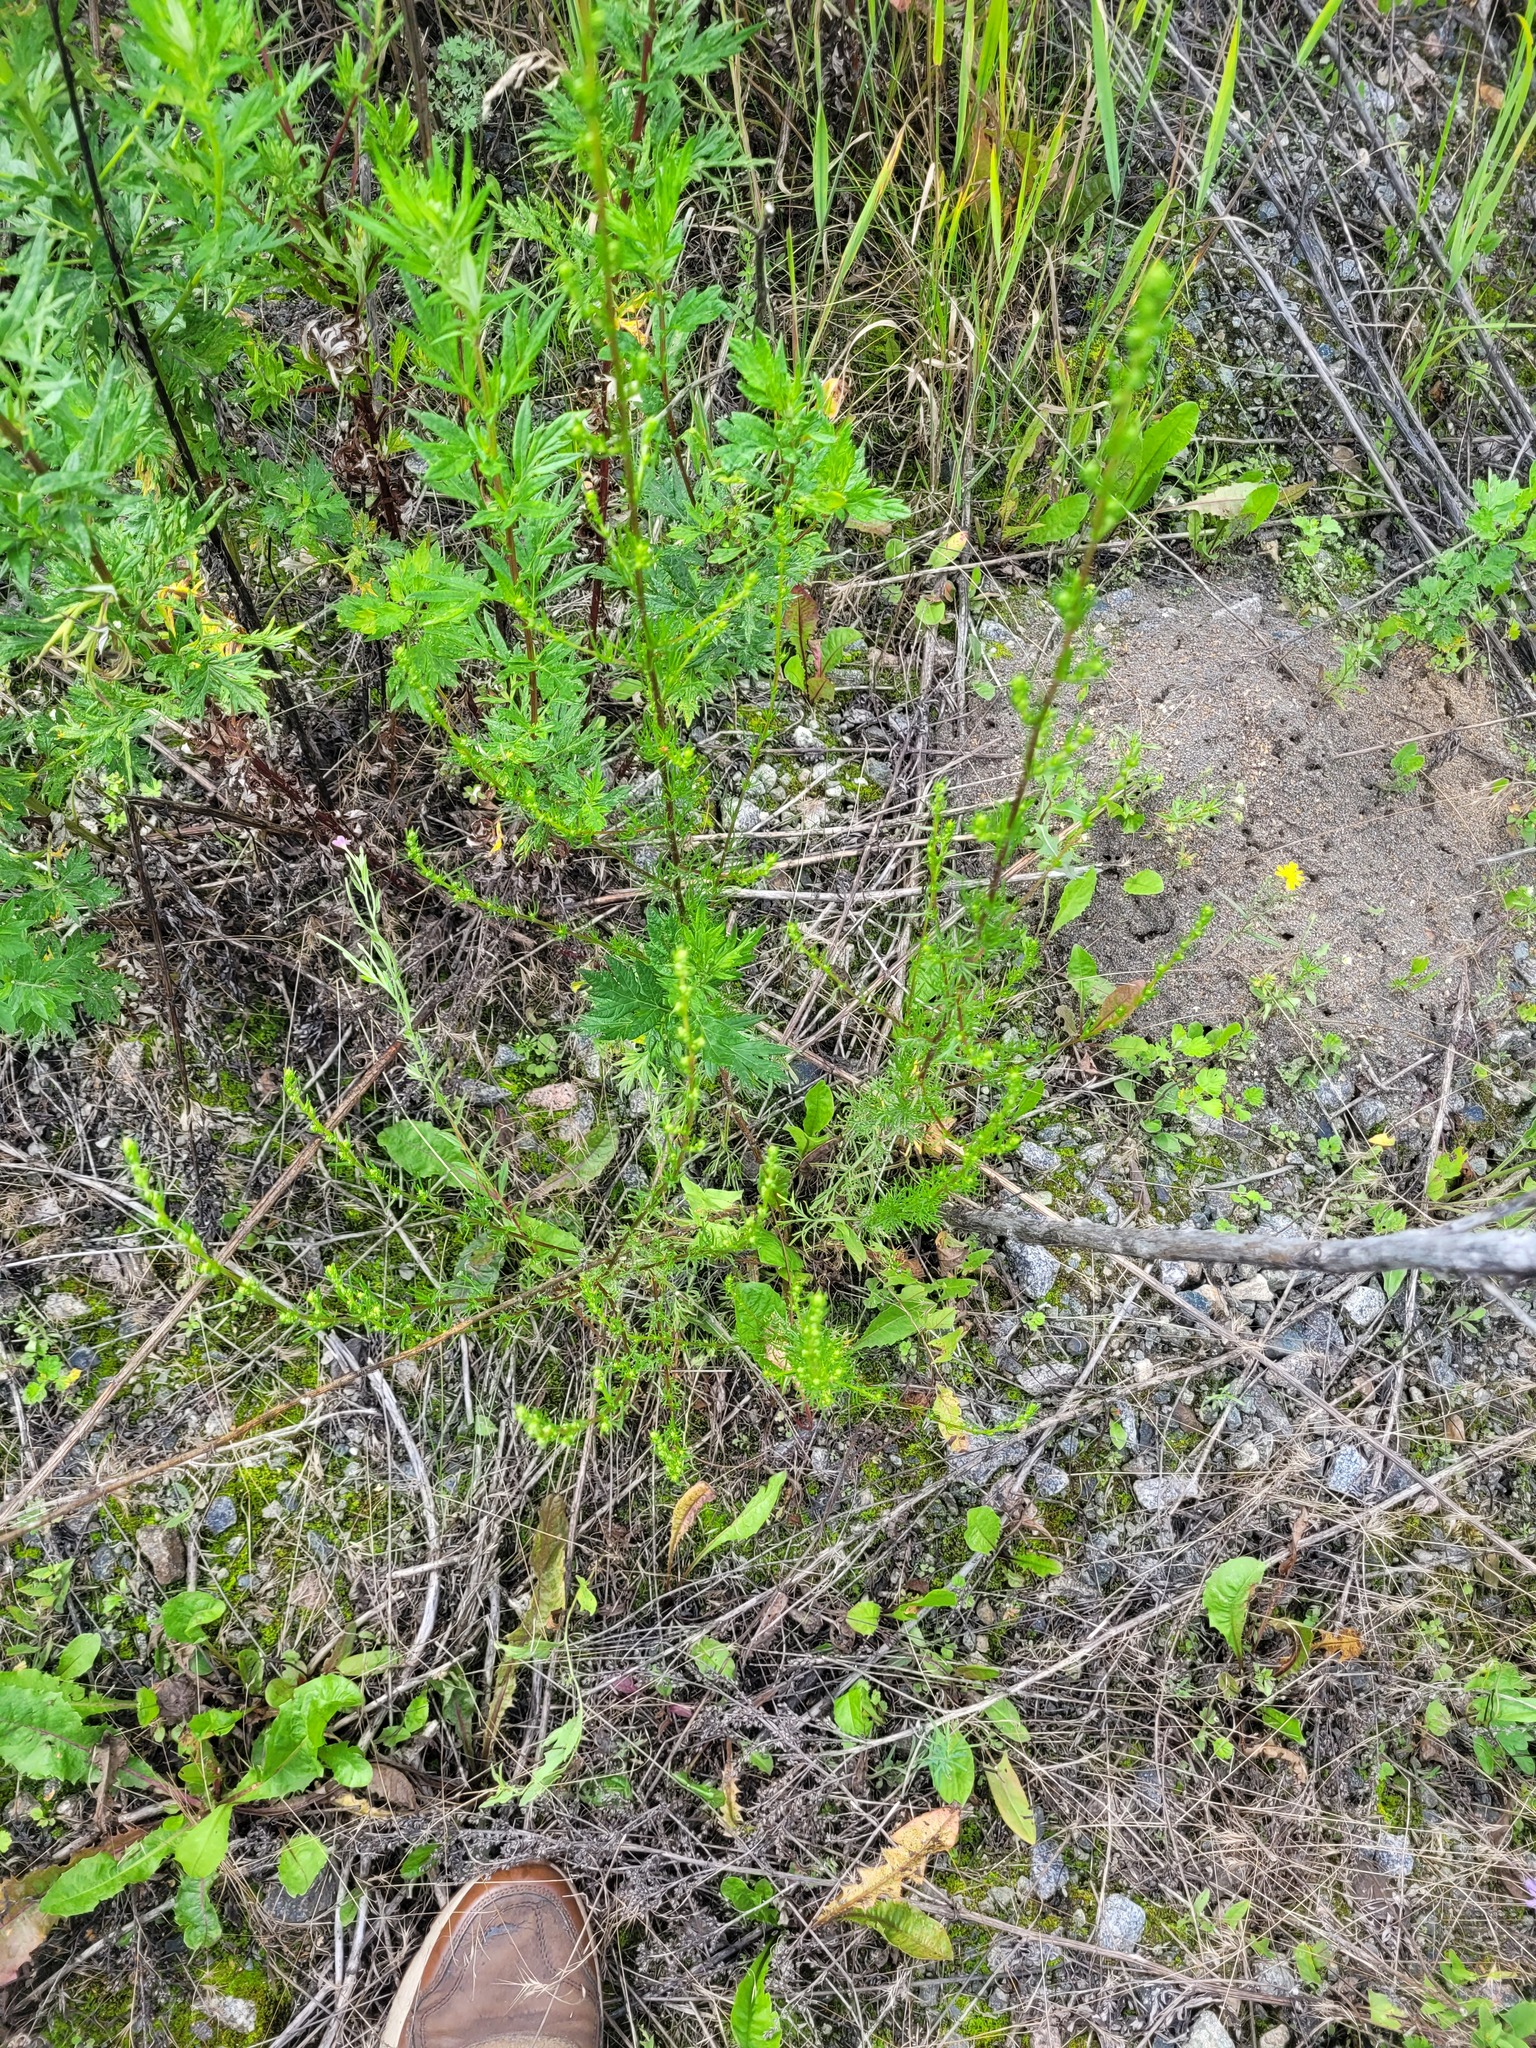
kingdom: Plantae
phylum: Tracheophyta
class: Magnoliopsida
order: Asterales
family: Asteraceae
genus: Artemisia
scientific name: Artemisia campestris
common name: Field wormwood
